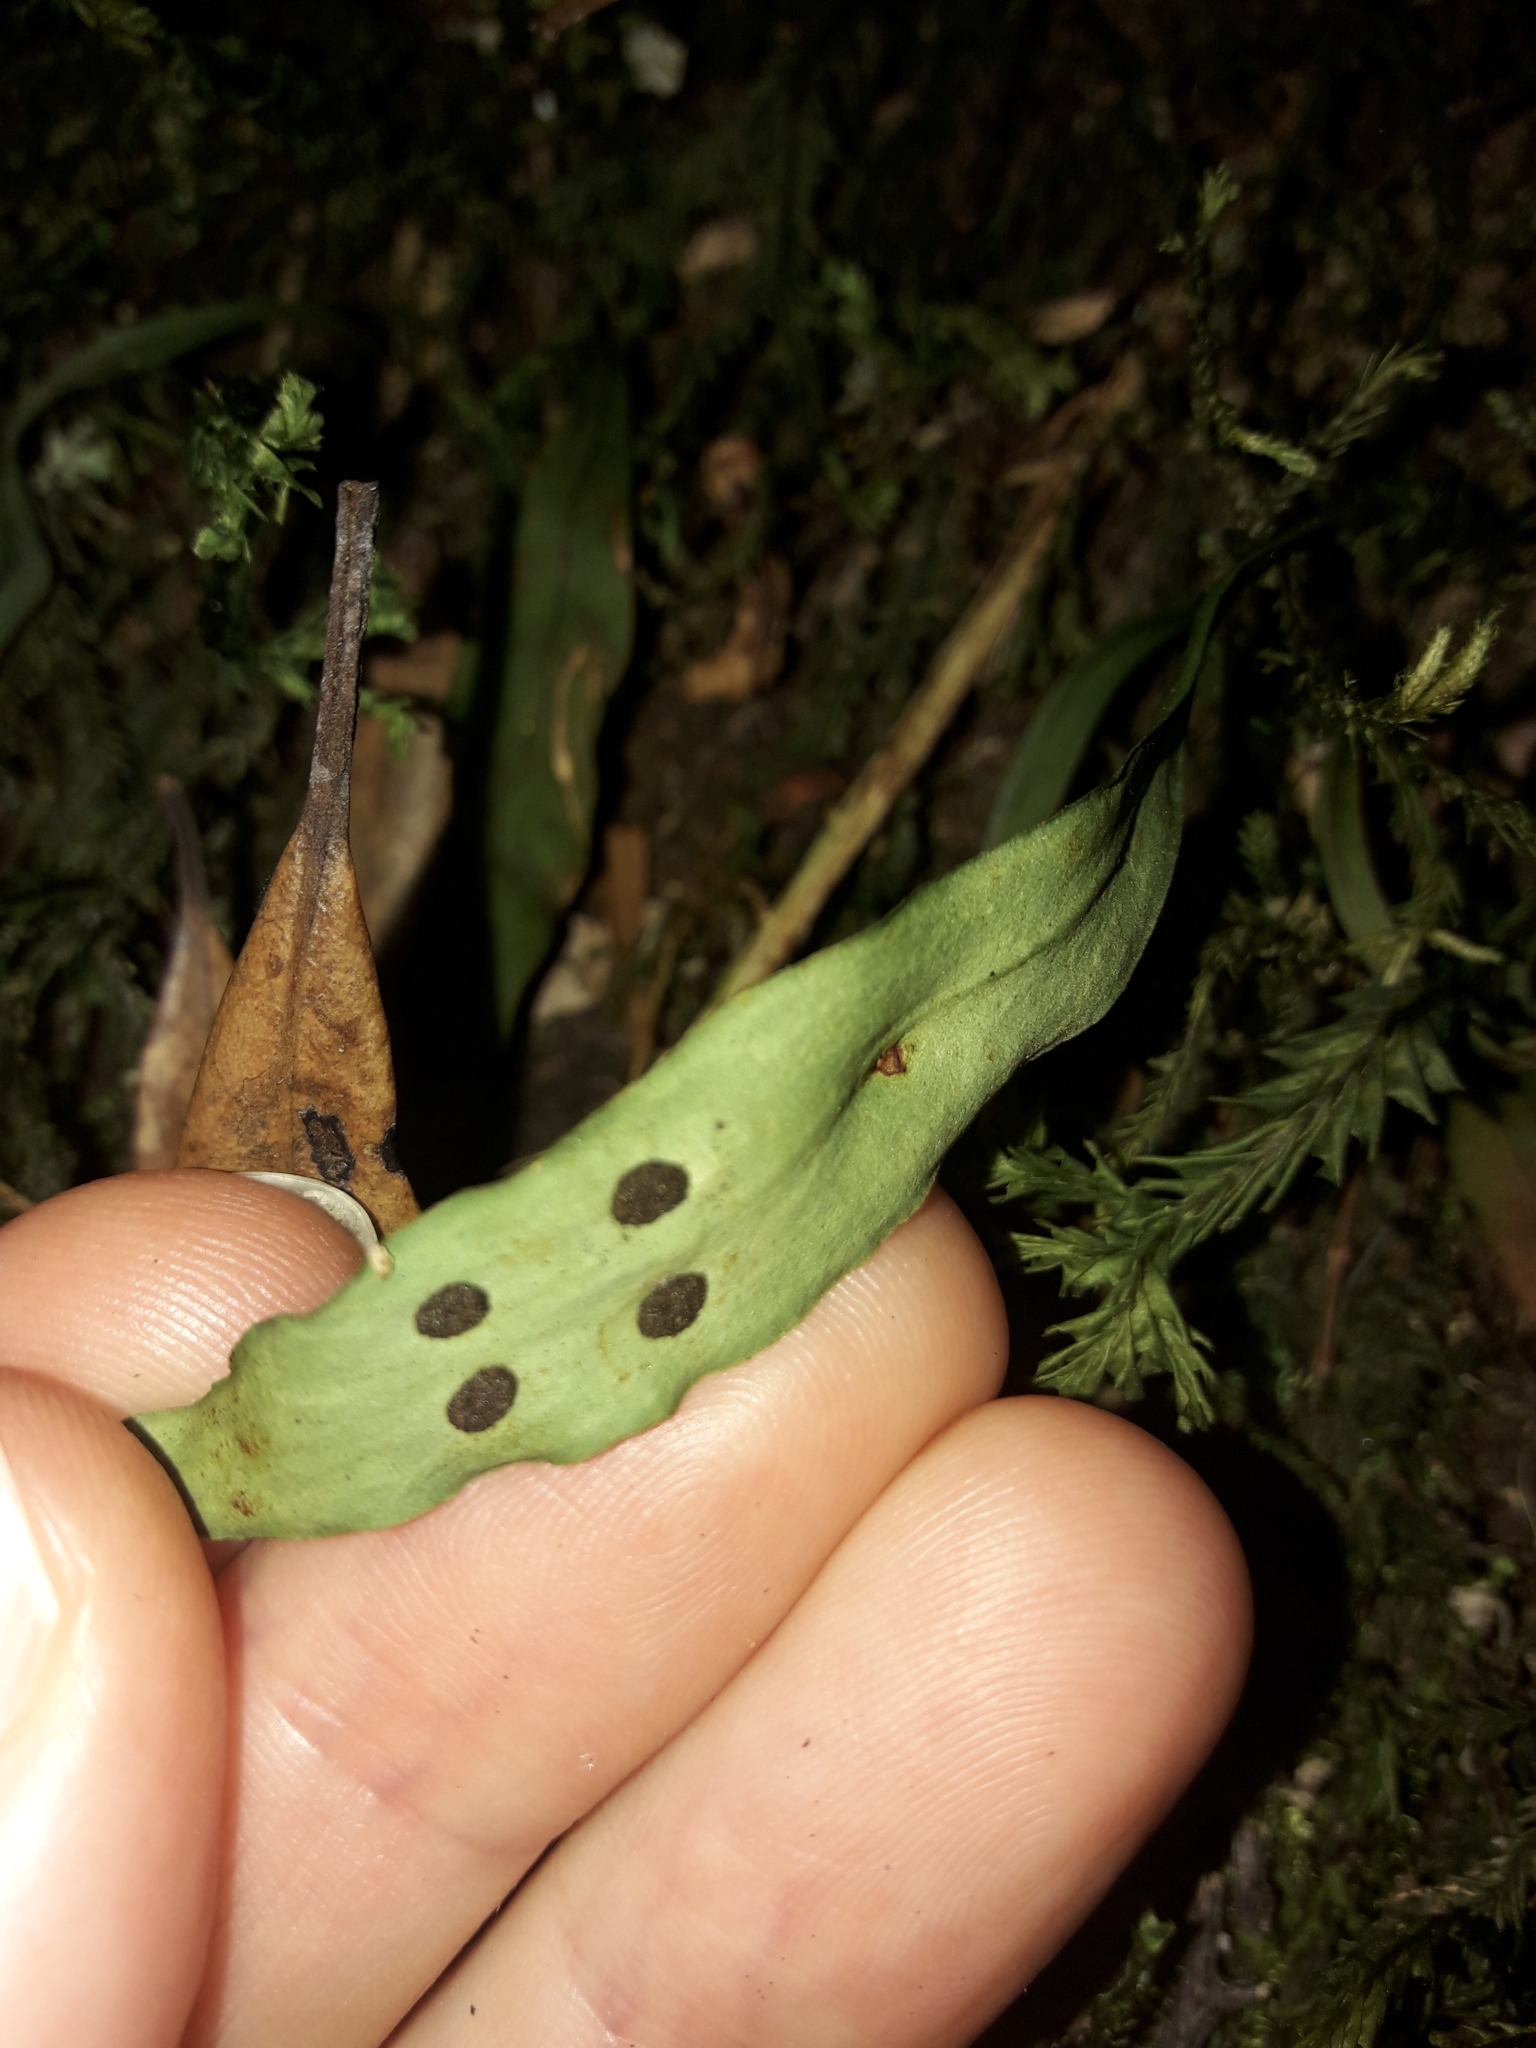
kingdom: Plantae
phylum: Tracheophyta
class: Polypodiopsida
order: Polypodiales
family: Polypodiaceae
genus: Loxogramme
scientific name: Loxogramme dictyopteris
